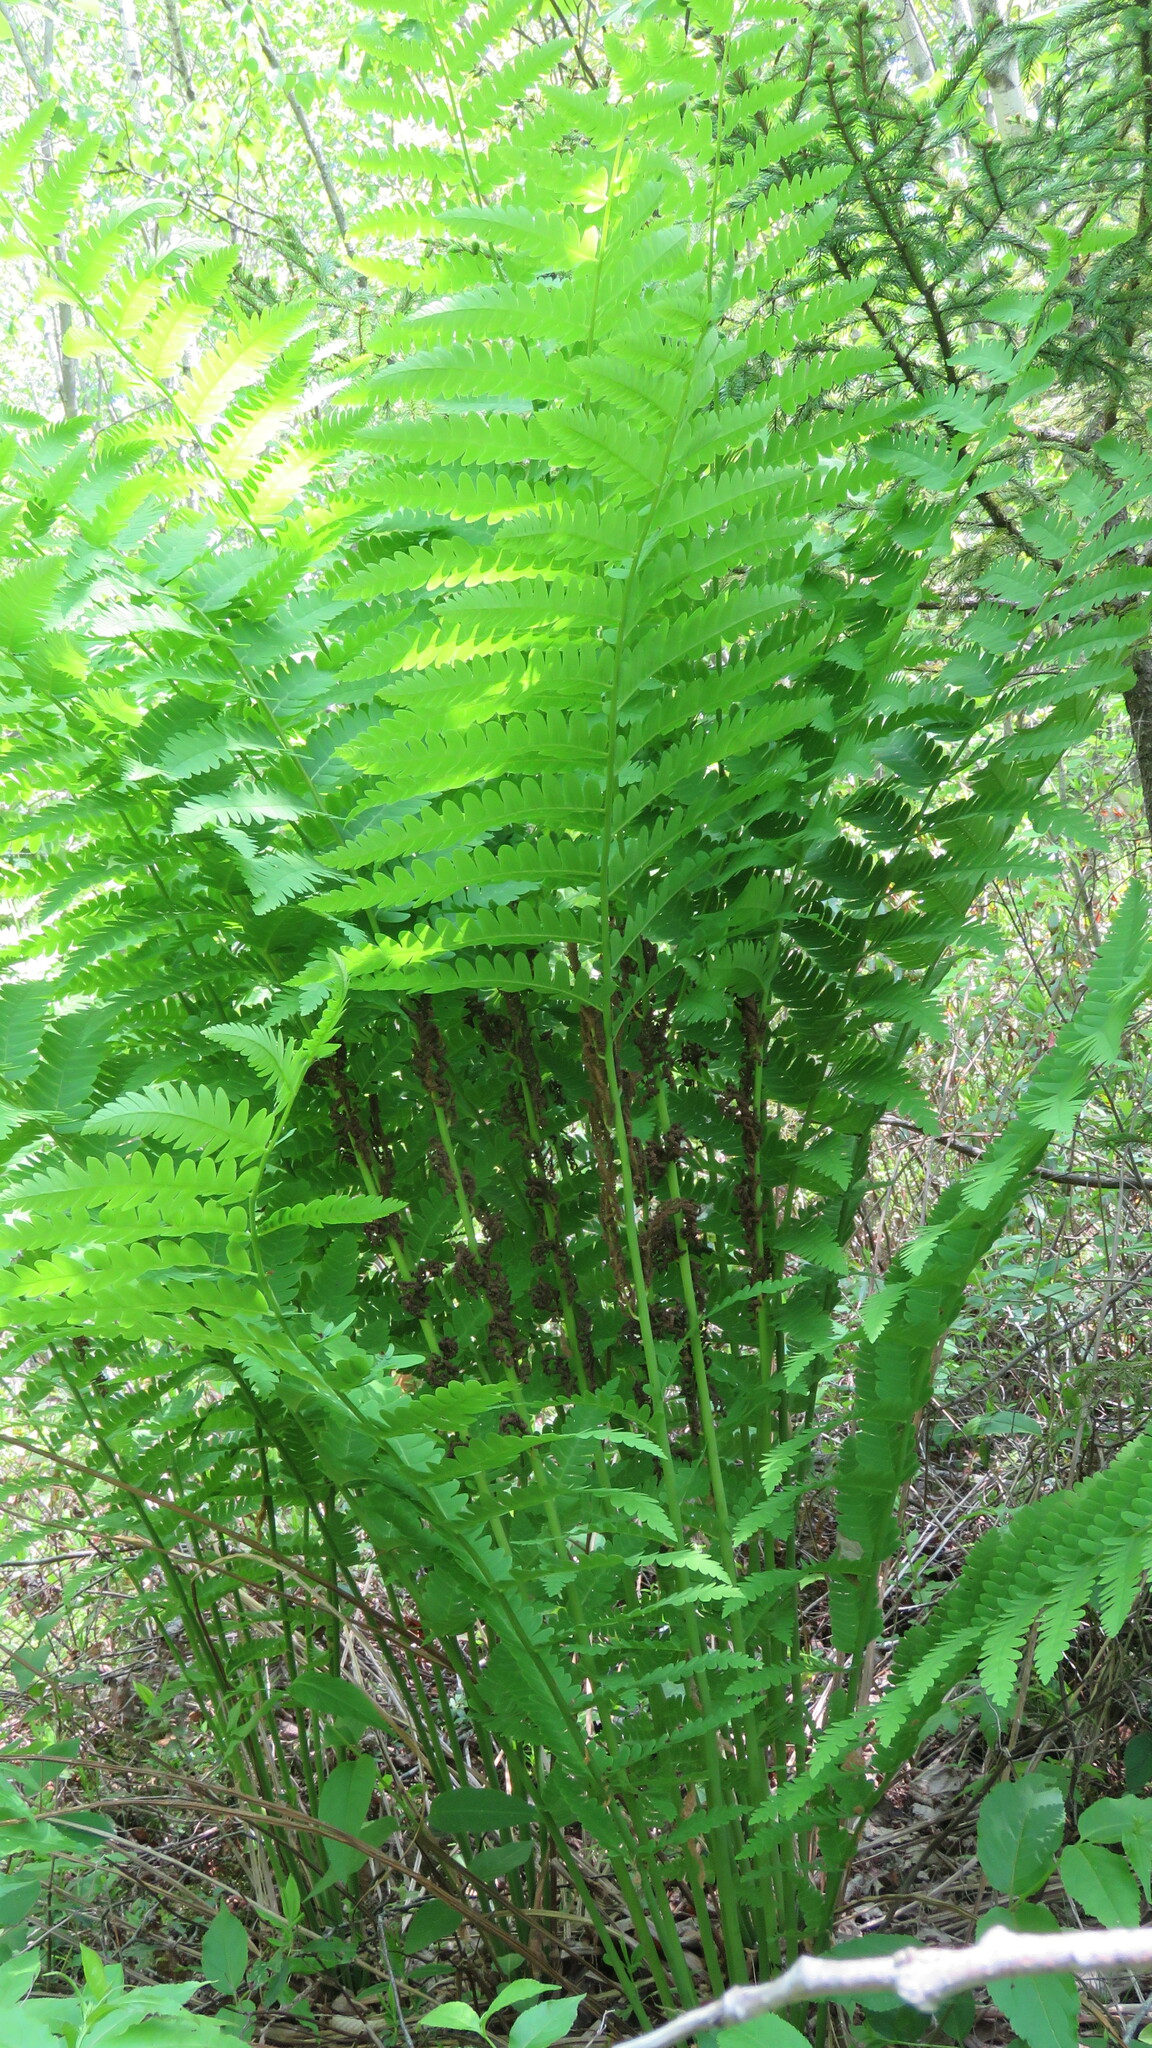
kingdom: Plantae
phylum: Tracheophyta
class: Polypodiopsida
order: Osmundales
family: Osmundaceae
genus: Claytosmunda
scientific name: Claytosmunda claytoniana
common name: Clayton's fern
